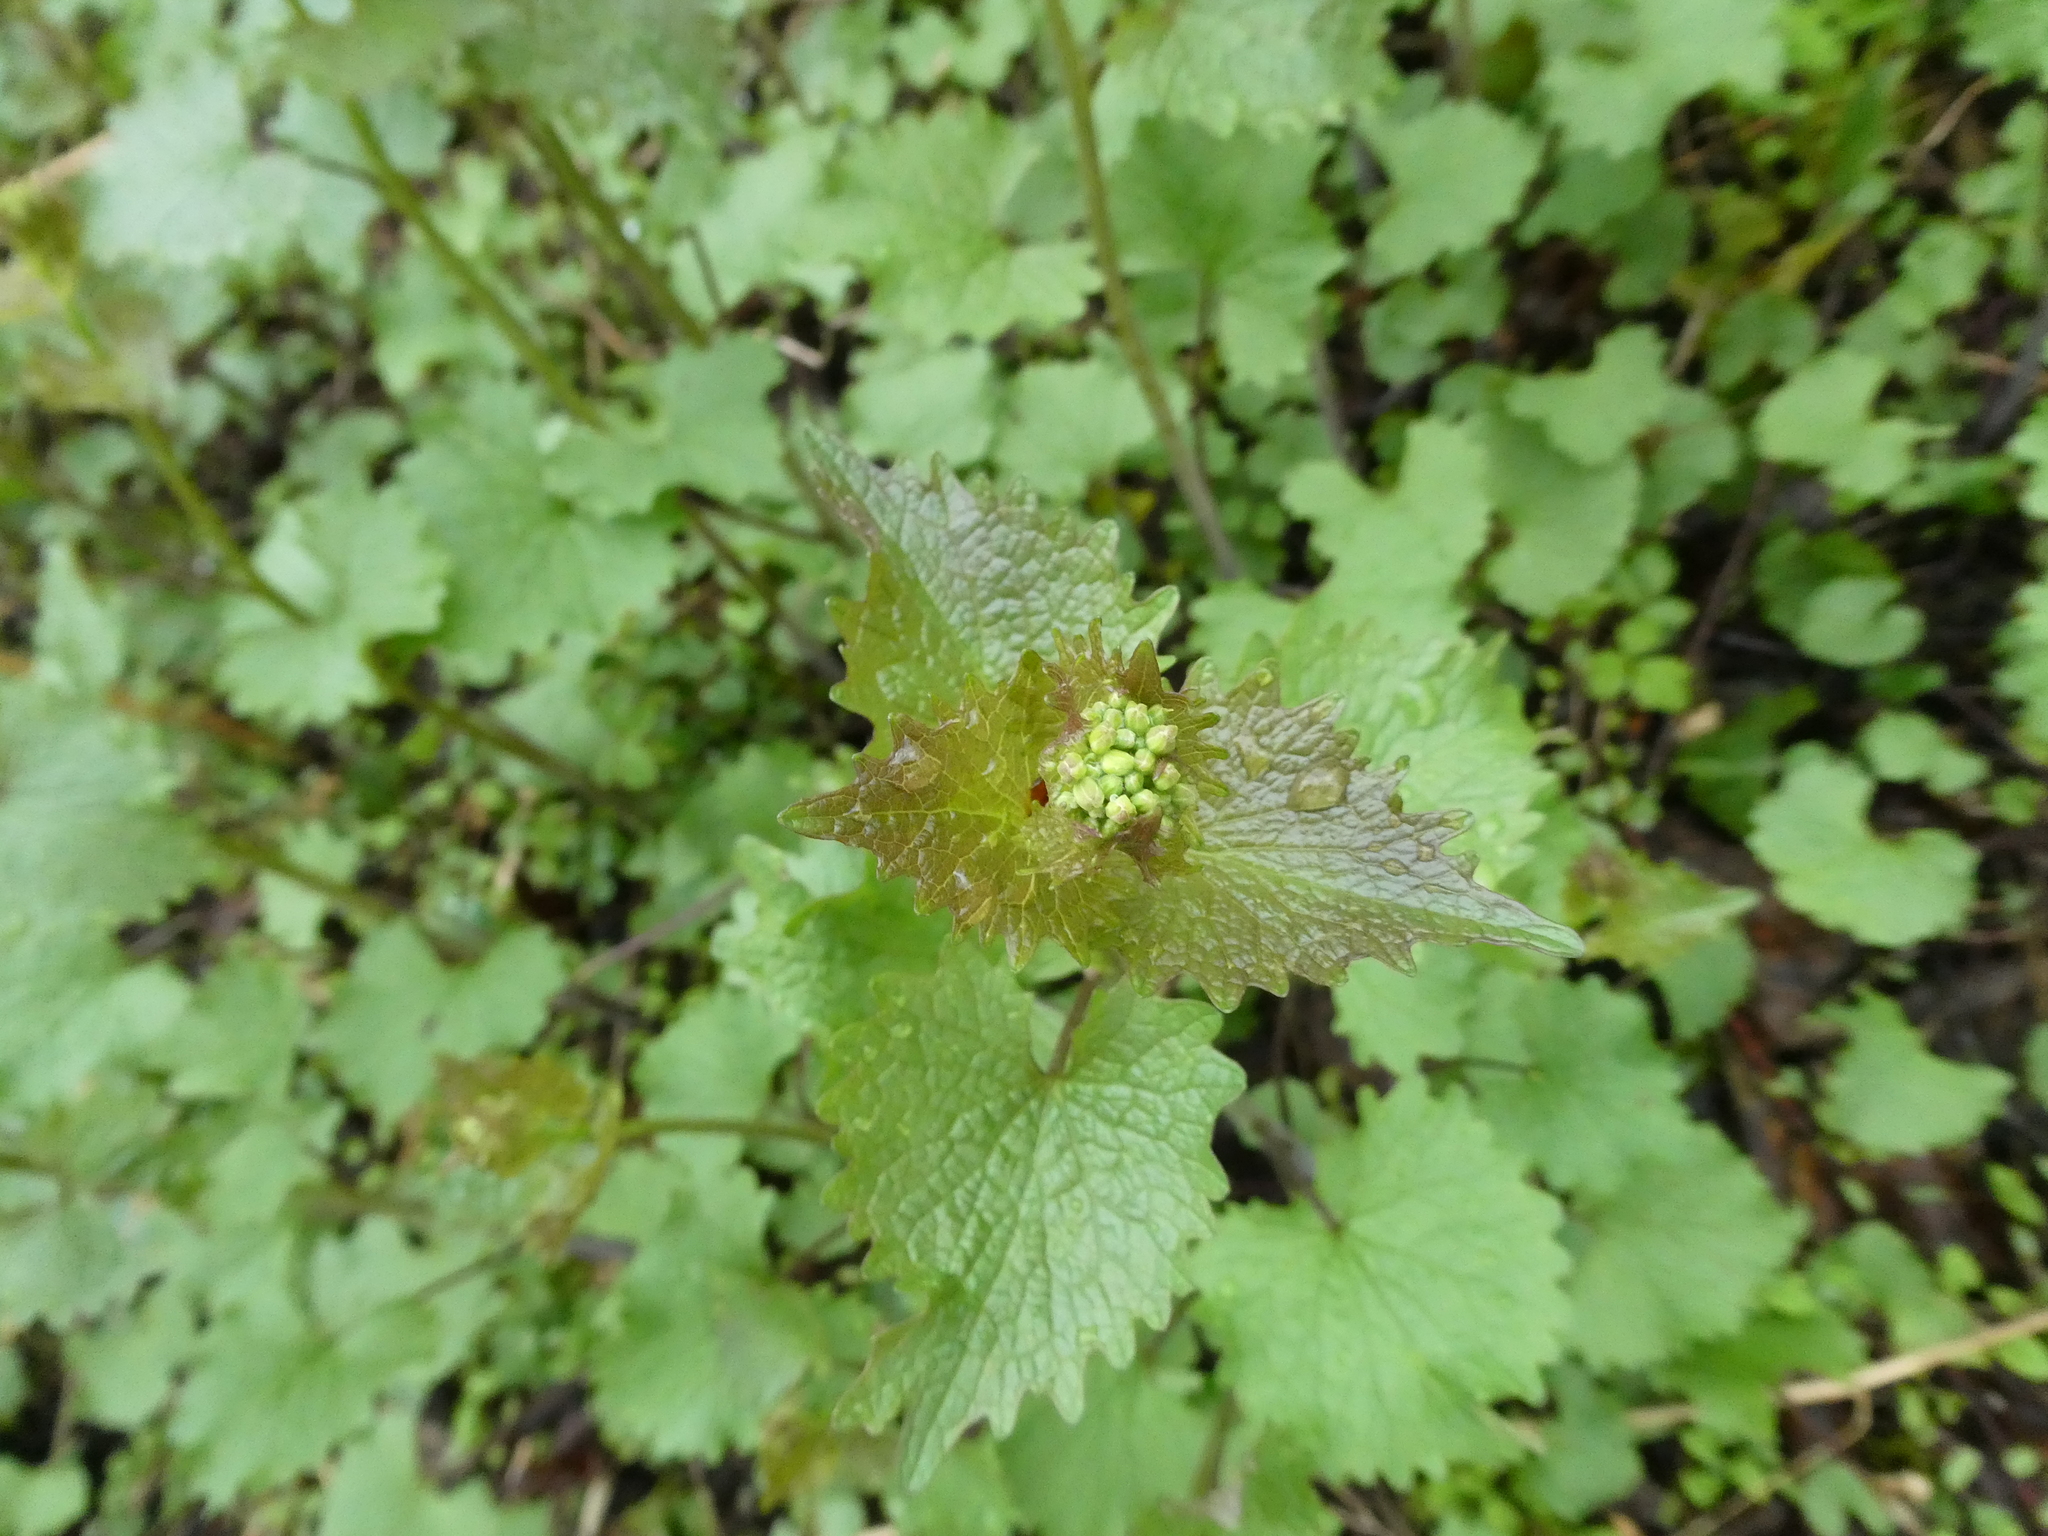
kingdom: Plantae
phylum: Tracheophyta
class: Magnoliopsida
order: Brassicales
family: Brassicaceae
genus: Alliaria
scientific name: Alliaria petiolata
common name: Garlic mustard
